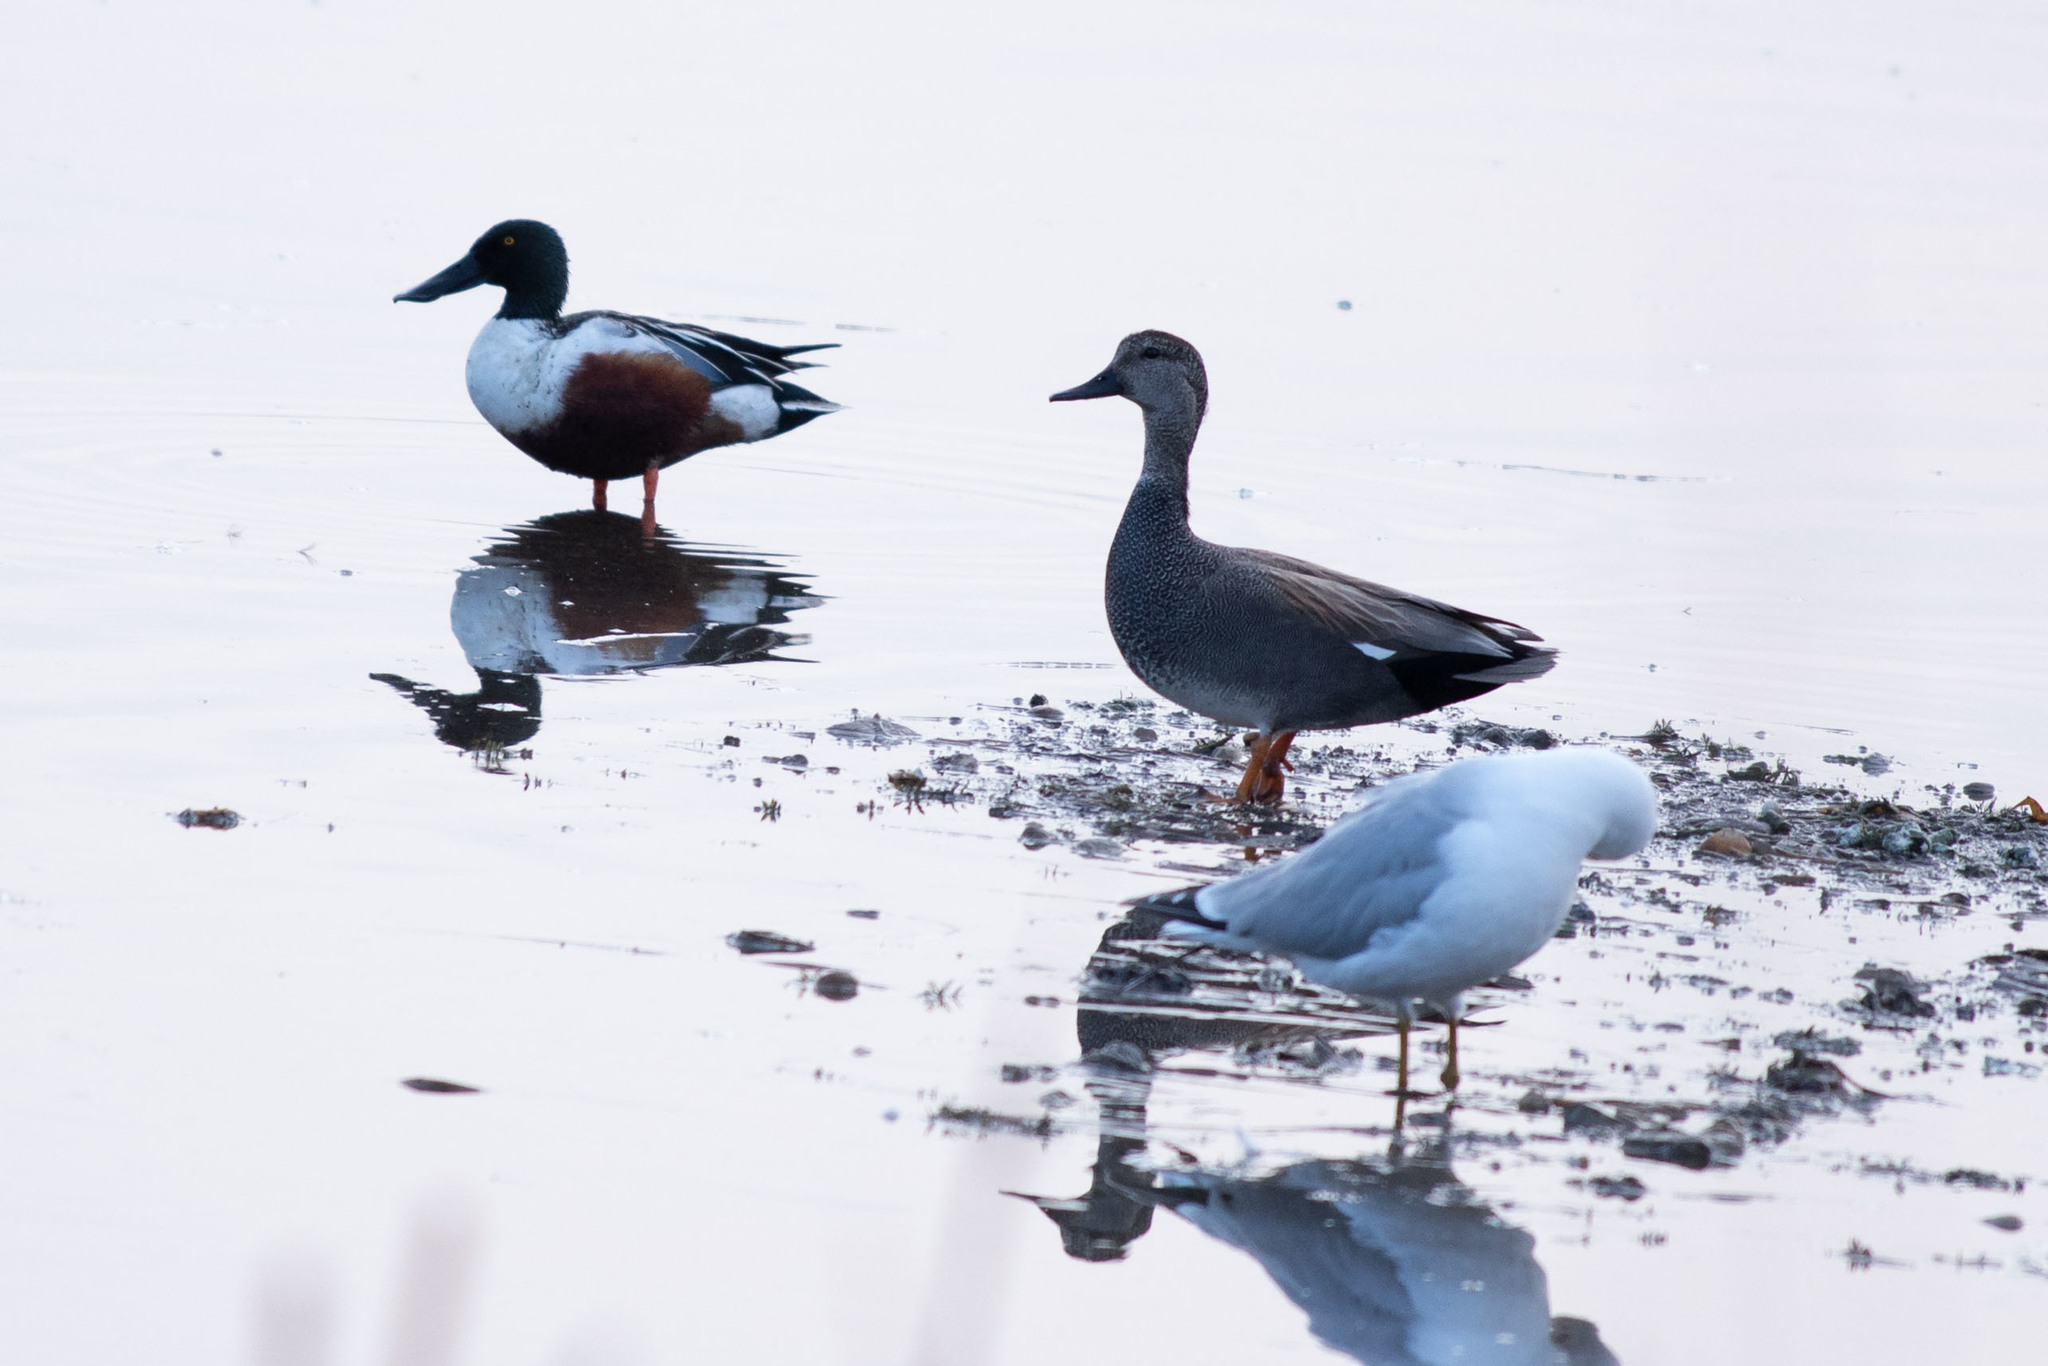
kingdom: Animalia
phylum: Chordata
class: Aves
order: Anseriformes
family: Anatidae
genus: Mareca
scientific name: Mareca strepera
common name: Gadwall
